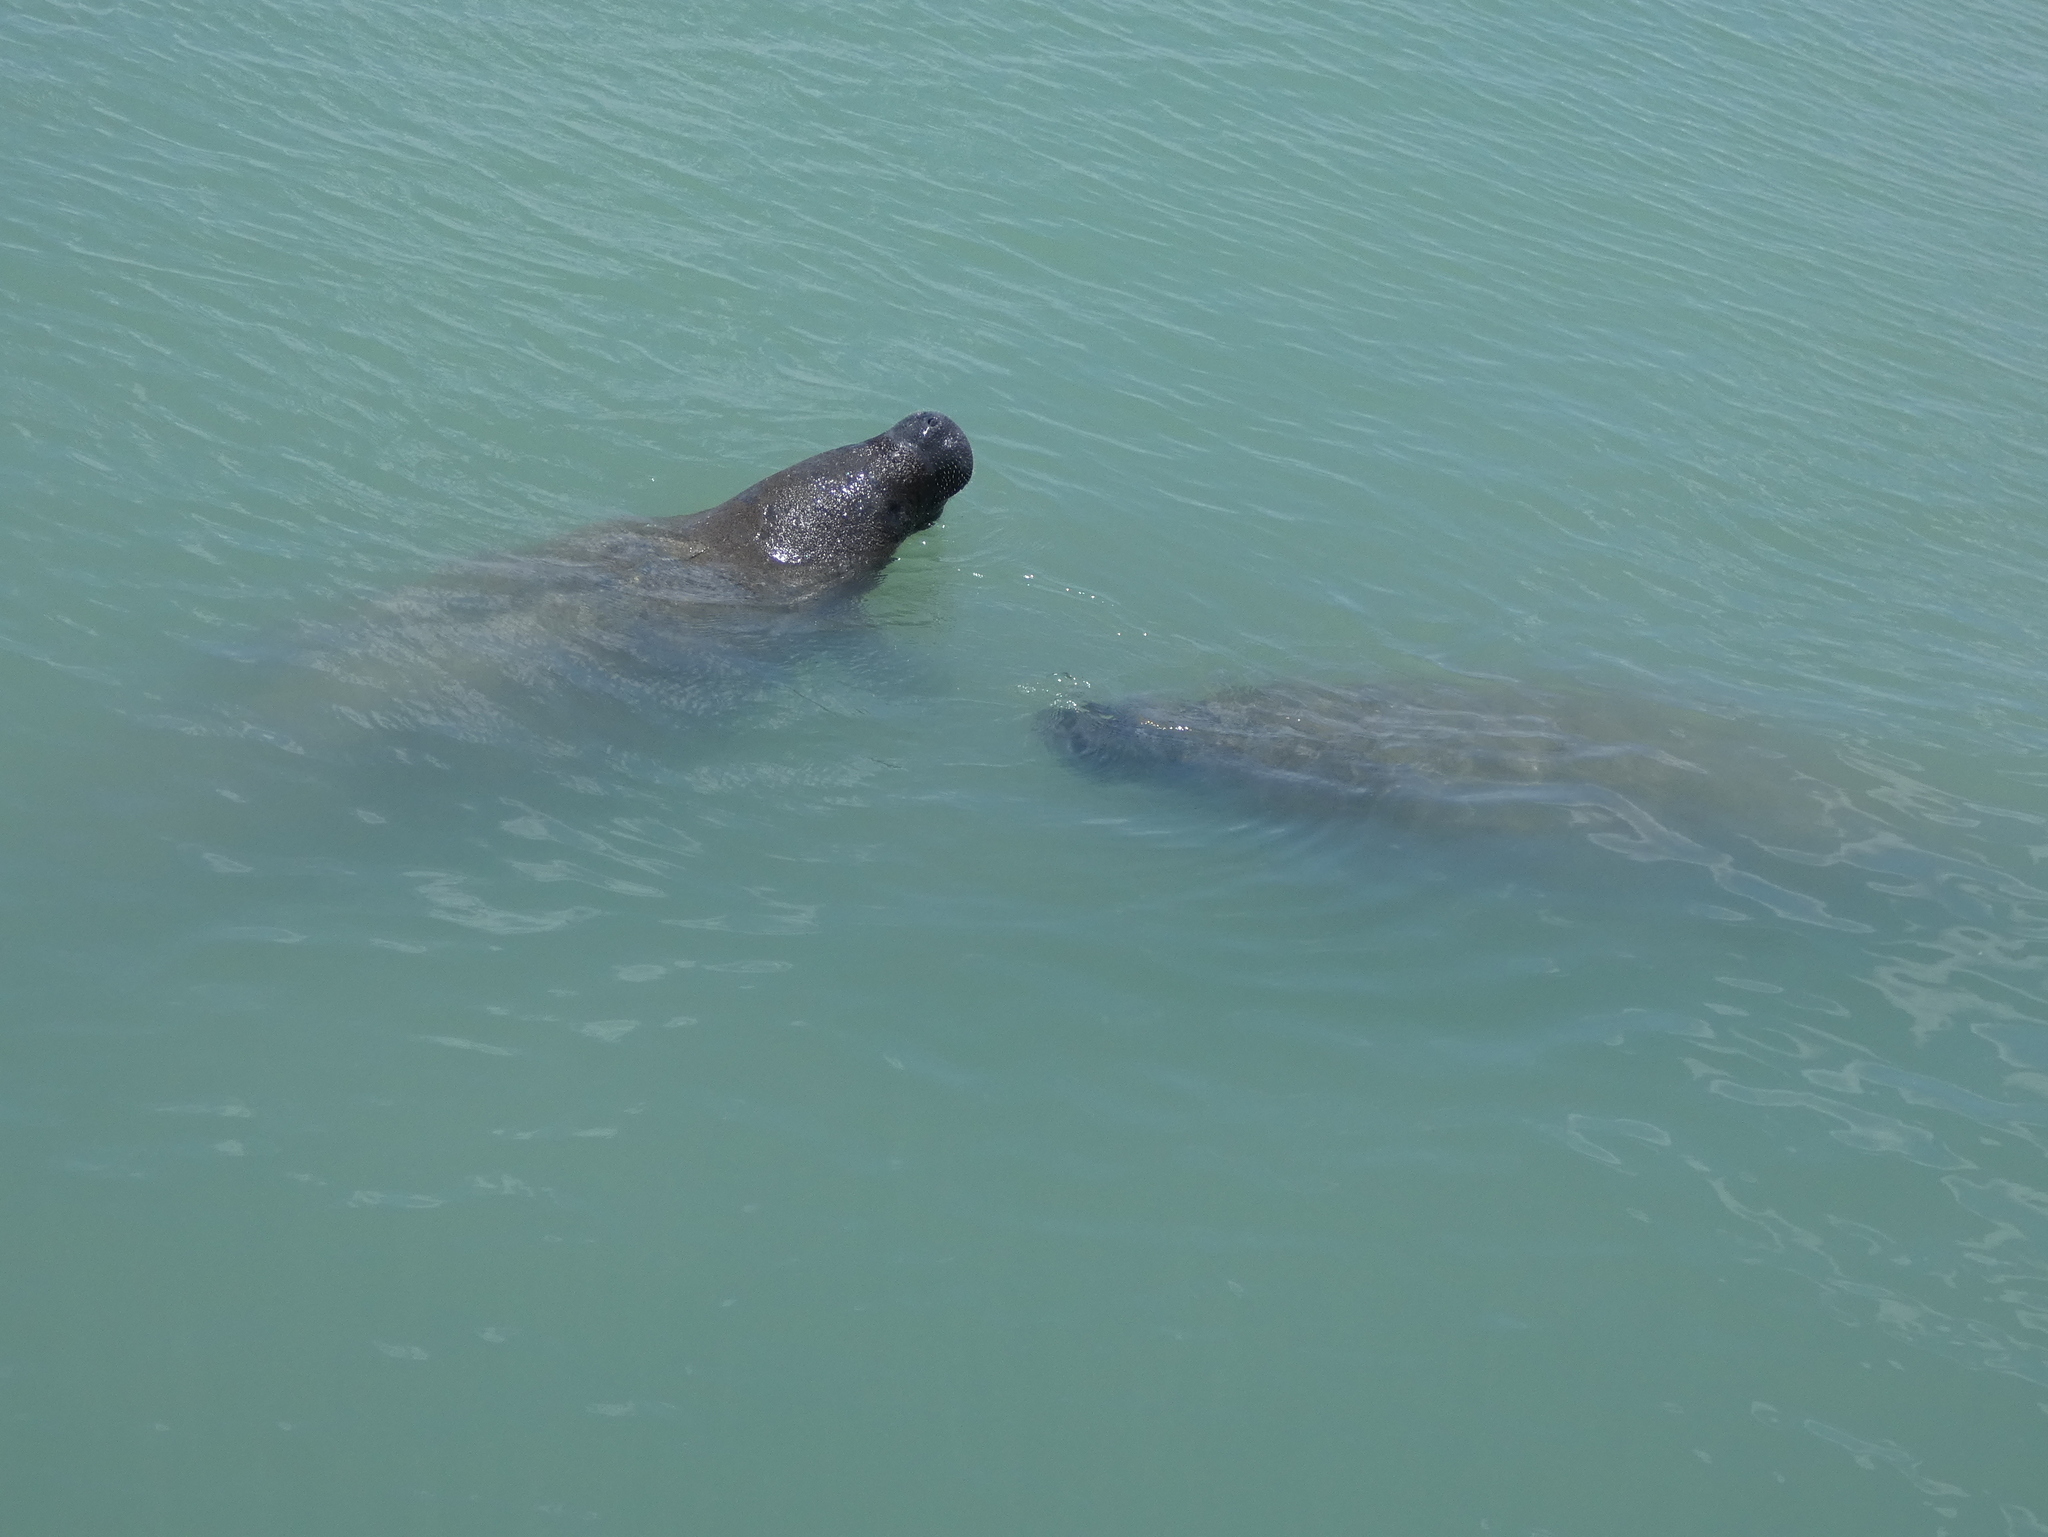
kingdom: Animalia
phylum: Chordata
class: Mammalia
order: Sirenia
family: Trichechidae
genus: Trichechus
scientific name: Trichechus manatus
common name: West indian manatee
